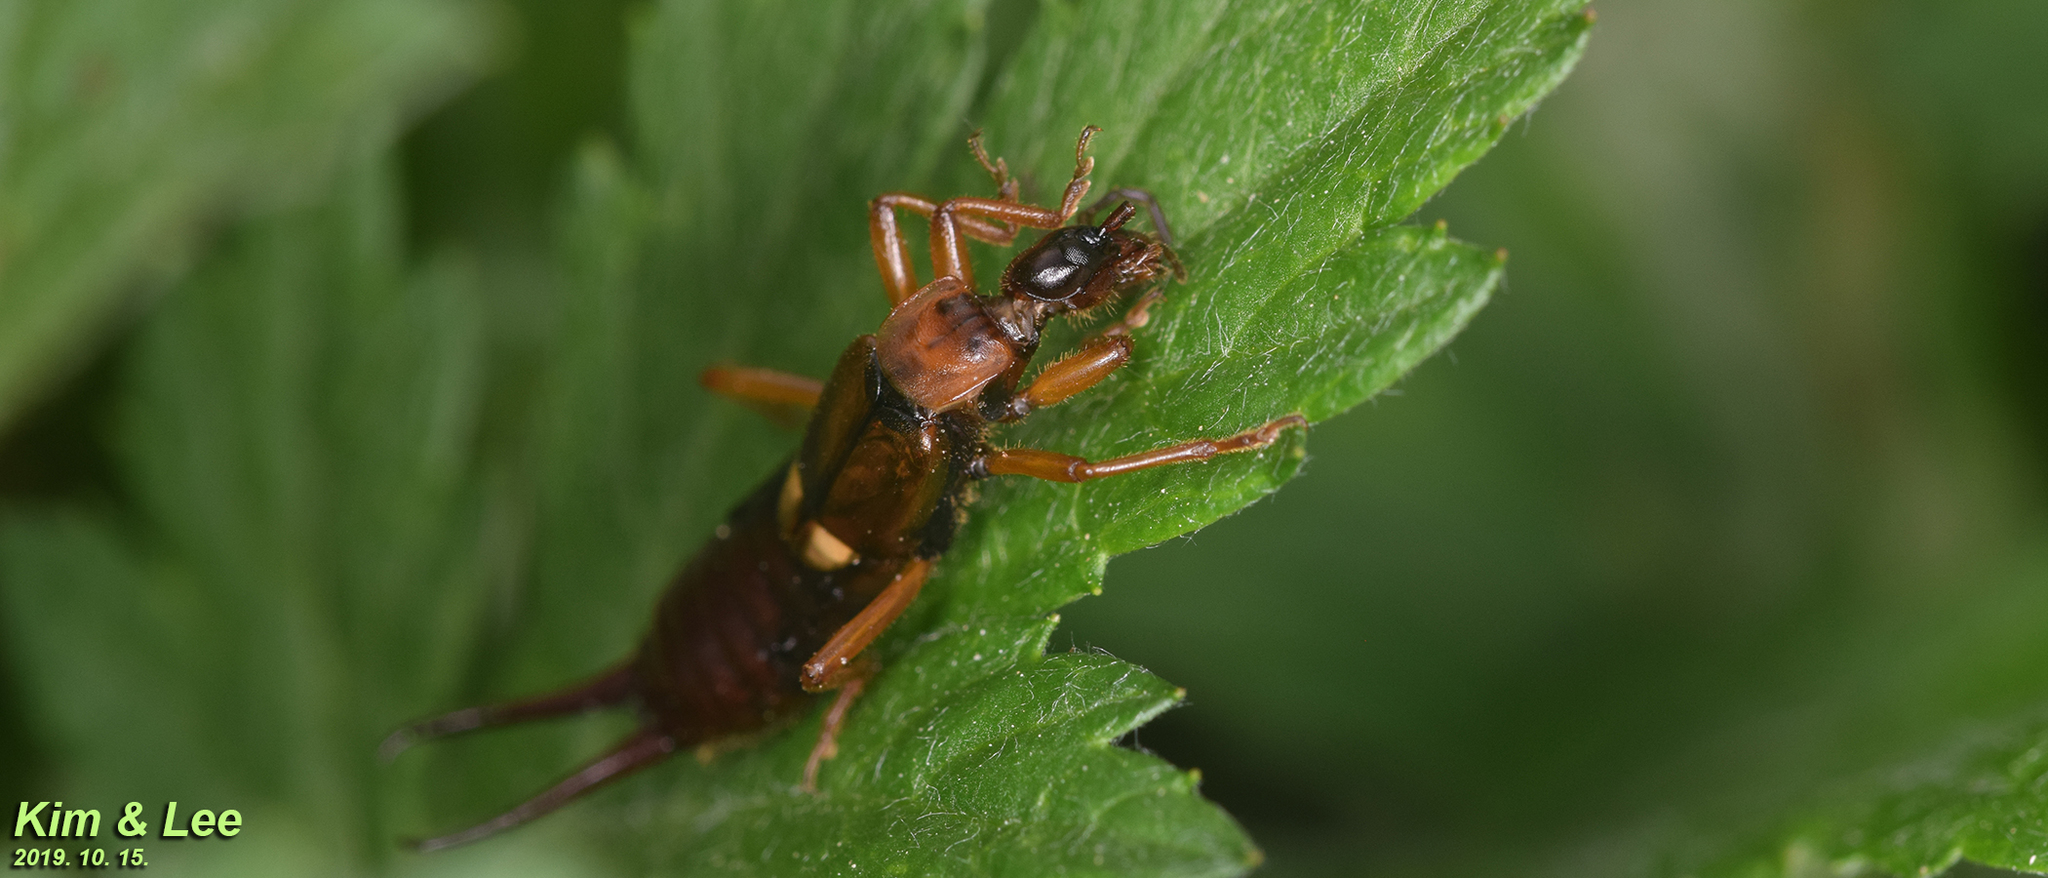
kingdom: Animalia
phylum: Arthropoda
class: Insecta
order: Dermaptera
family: Forficulidae
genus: Anechura
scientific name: Anechura japonica
